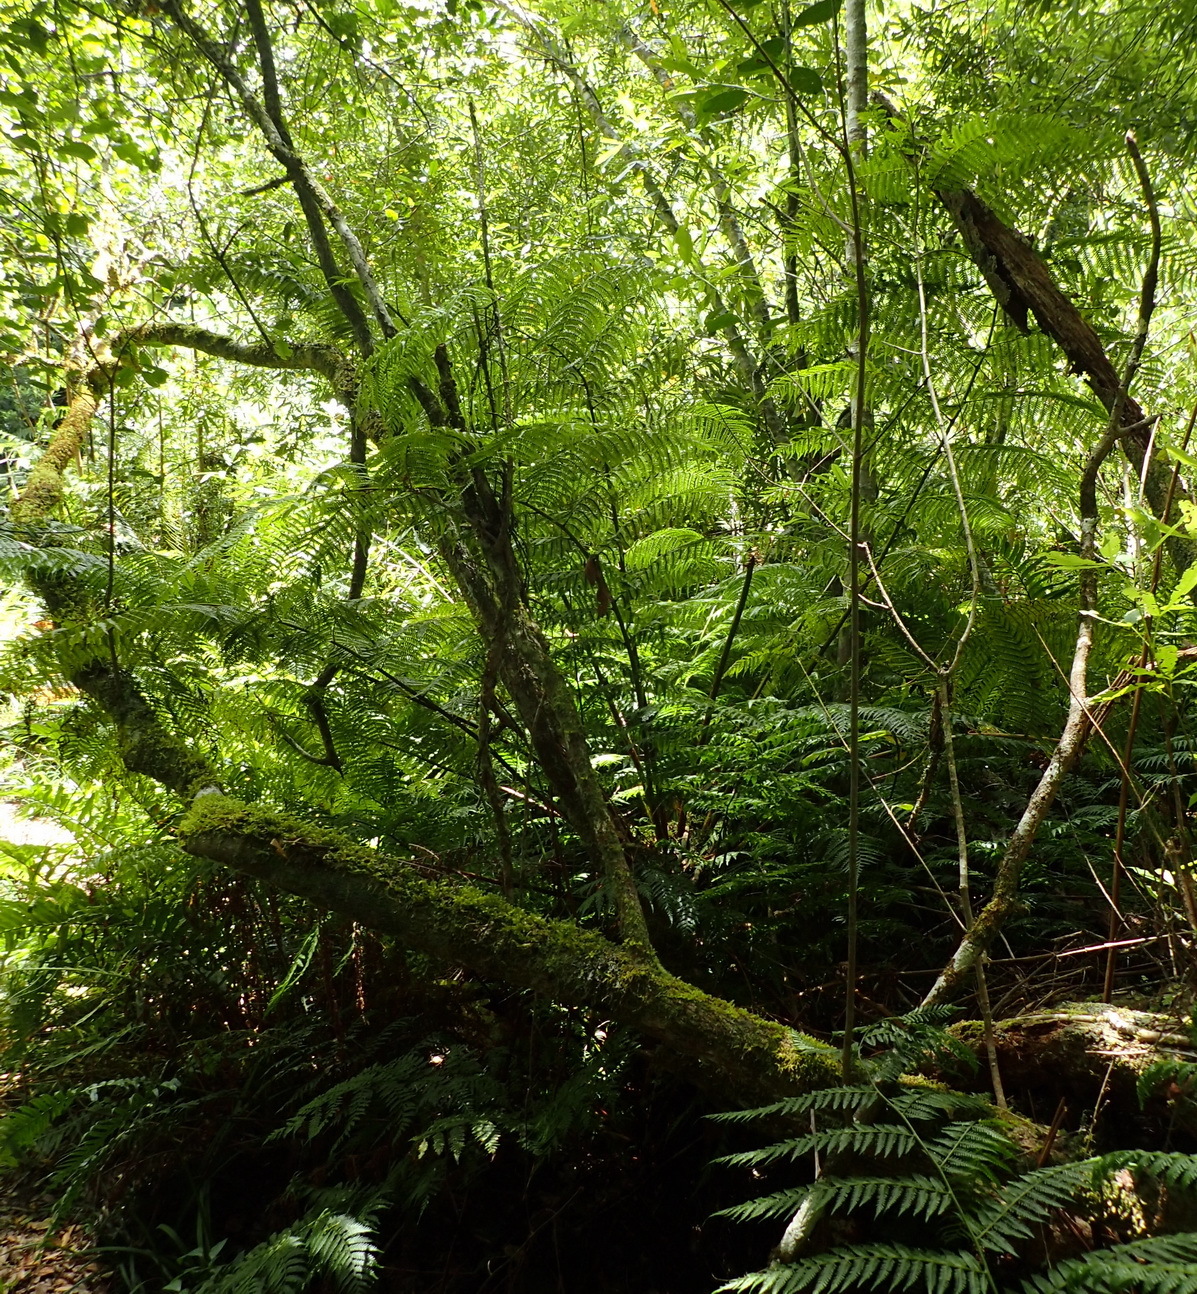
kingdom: Plantae
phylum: Tracheophyta
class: Polypodiopsida
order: Cyatheales
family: Cyatheaceae
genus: Gymnosphaera
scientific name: Gymnosphaera capensis
